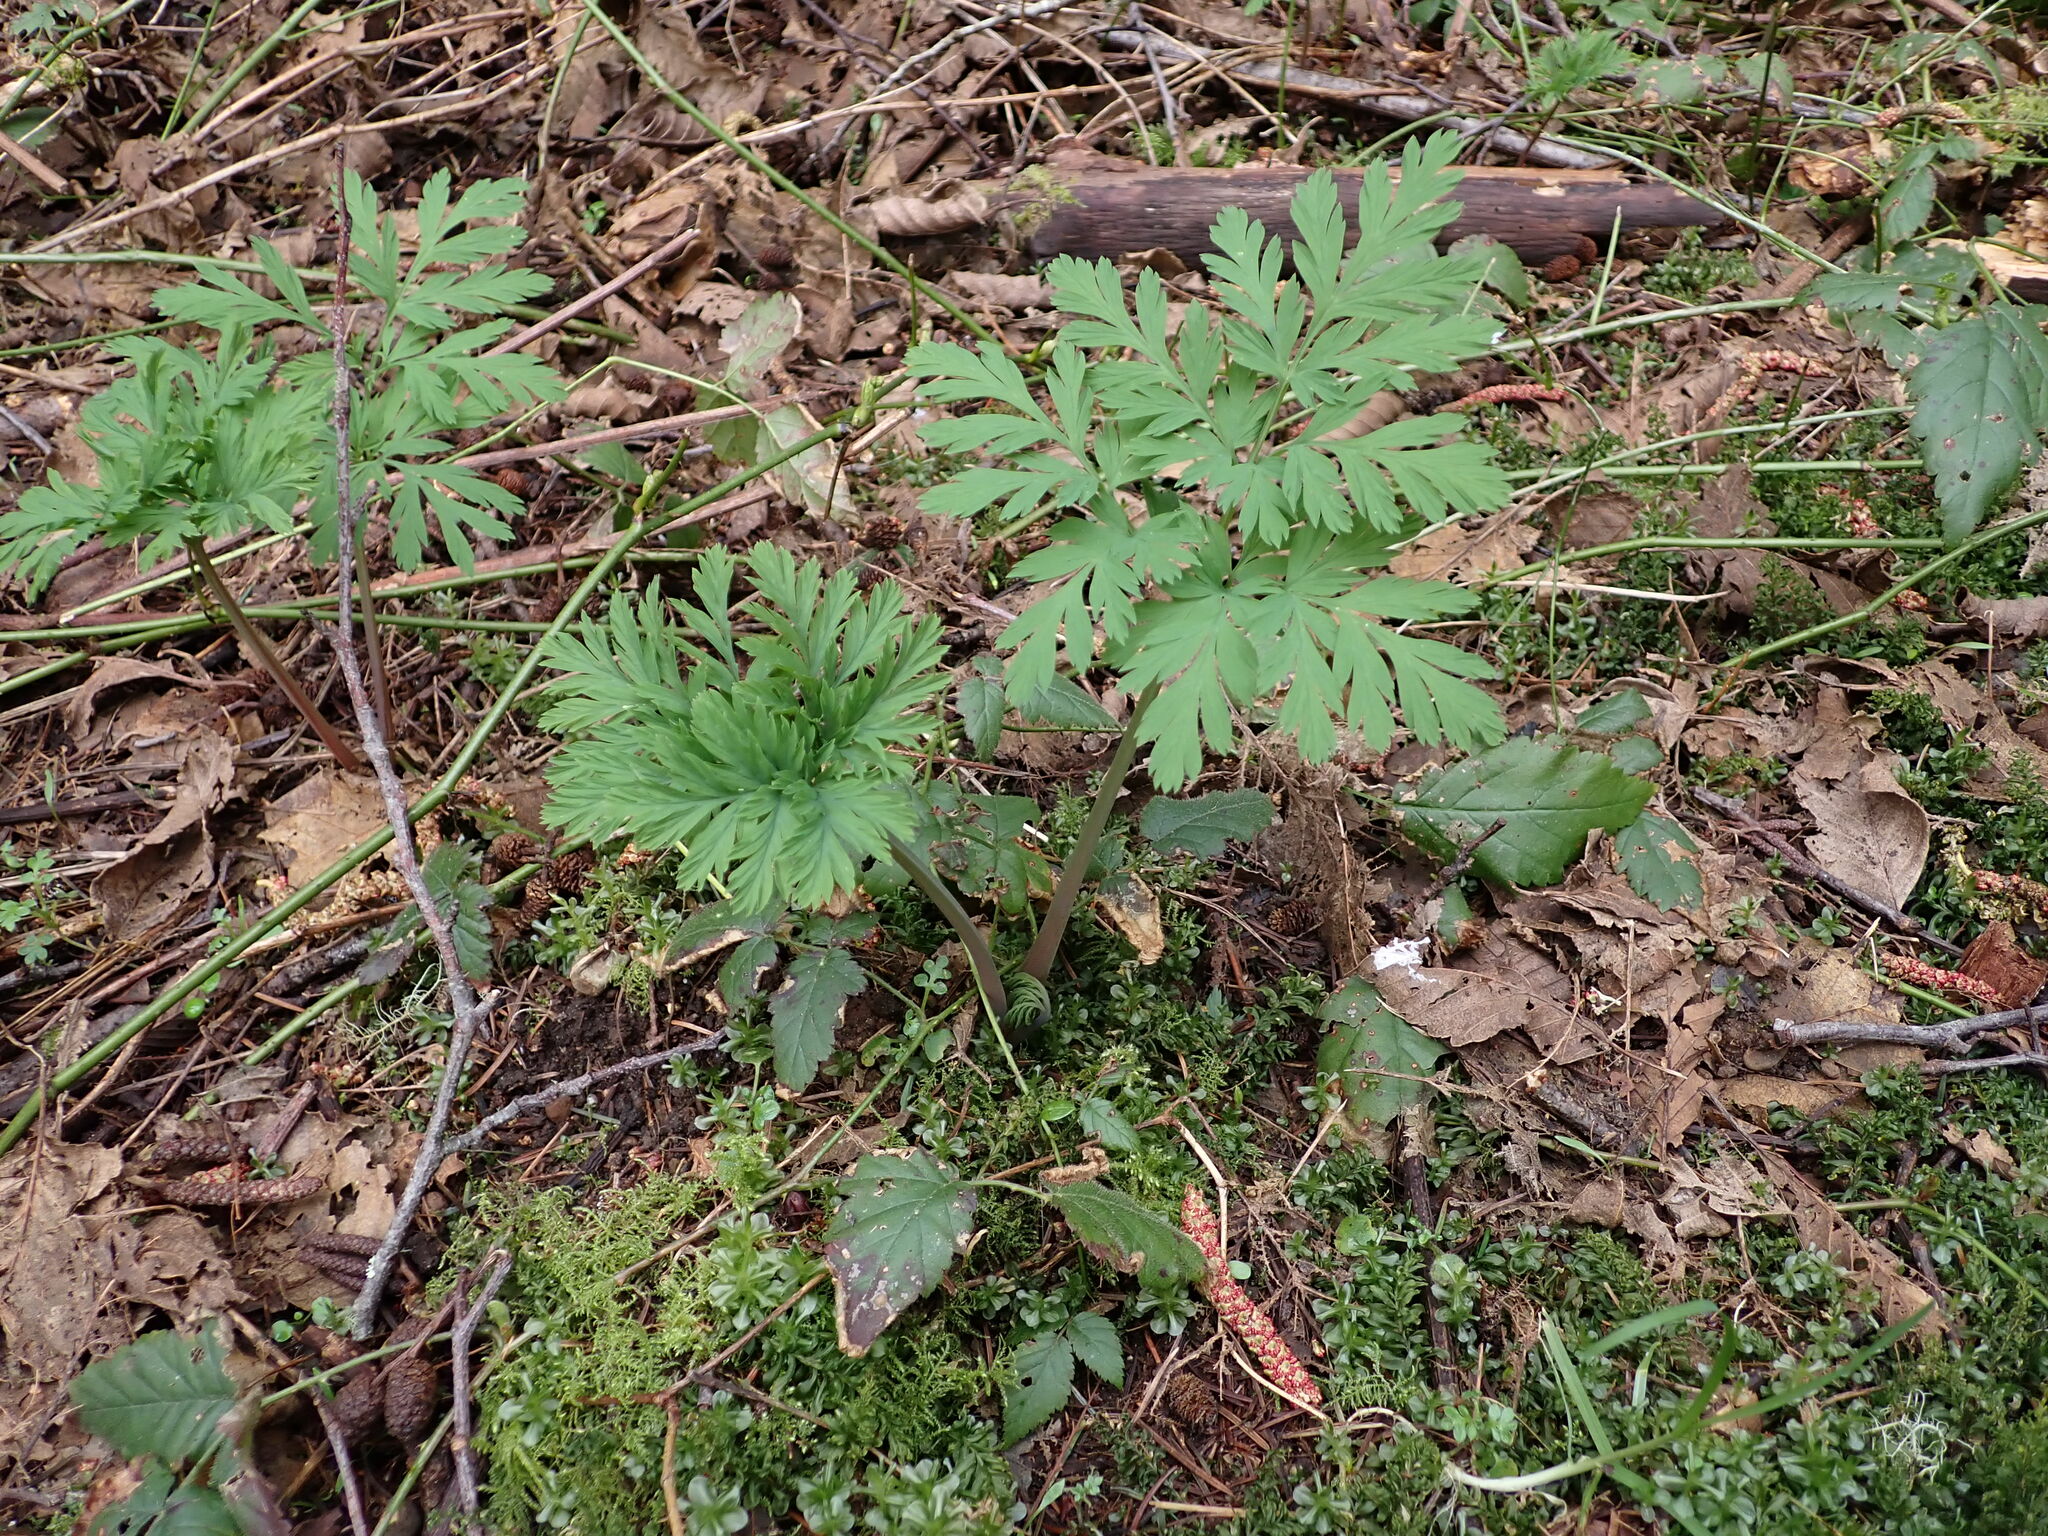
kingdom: Plantae
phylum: Tracheophyta
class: Magnoliopsida
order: Ranunculales
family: Papaveraceae
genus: Dicentra
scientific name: Dicentra formosa
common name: Bleeding-heart
